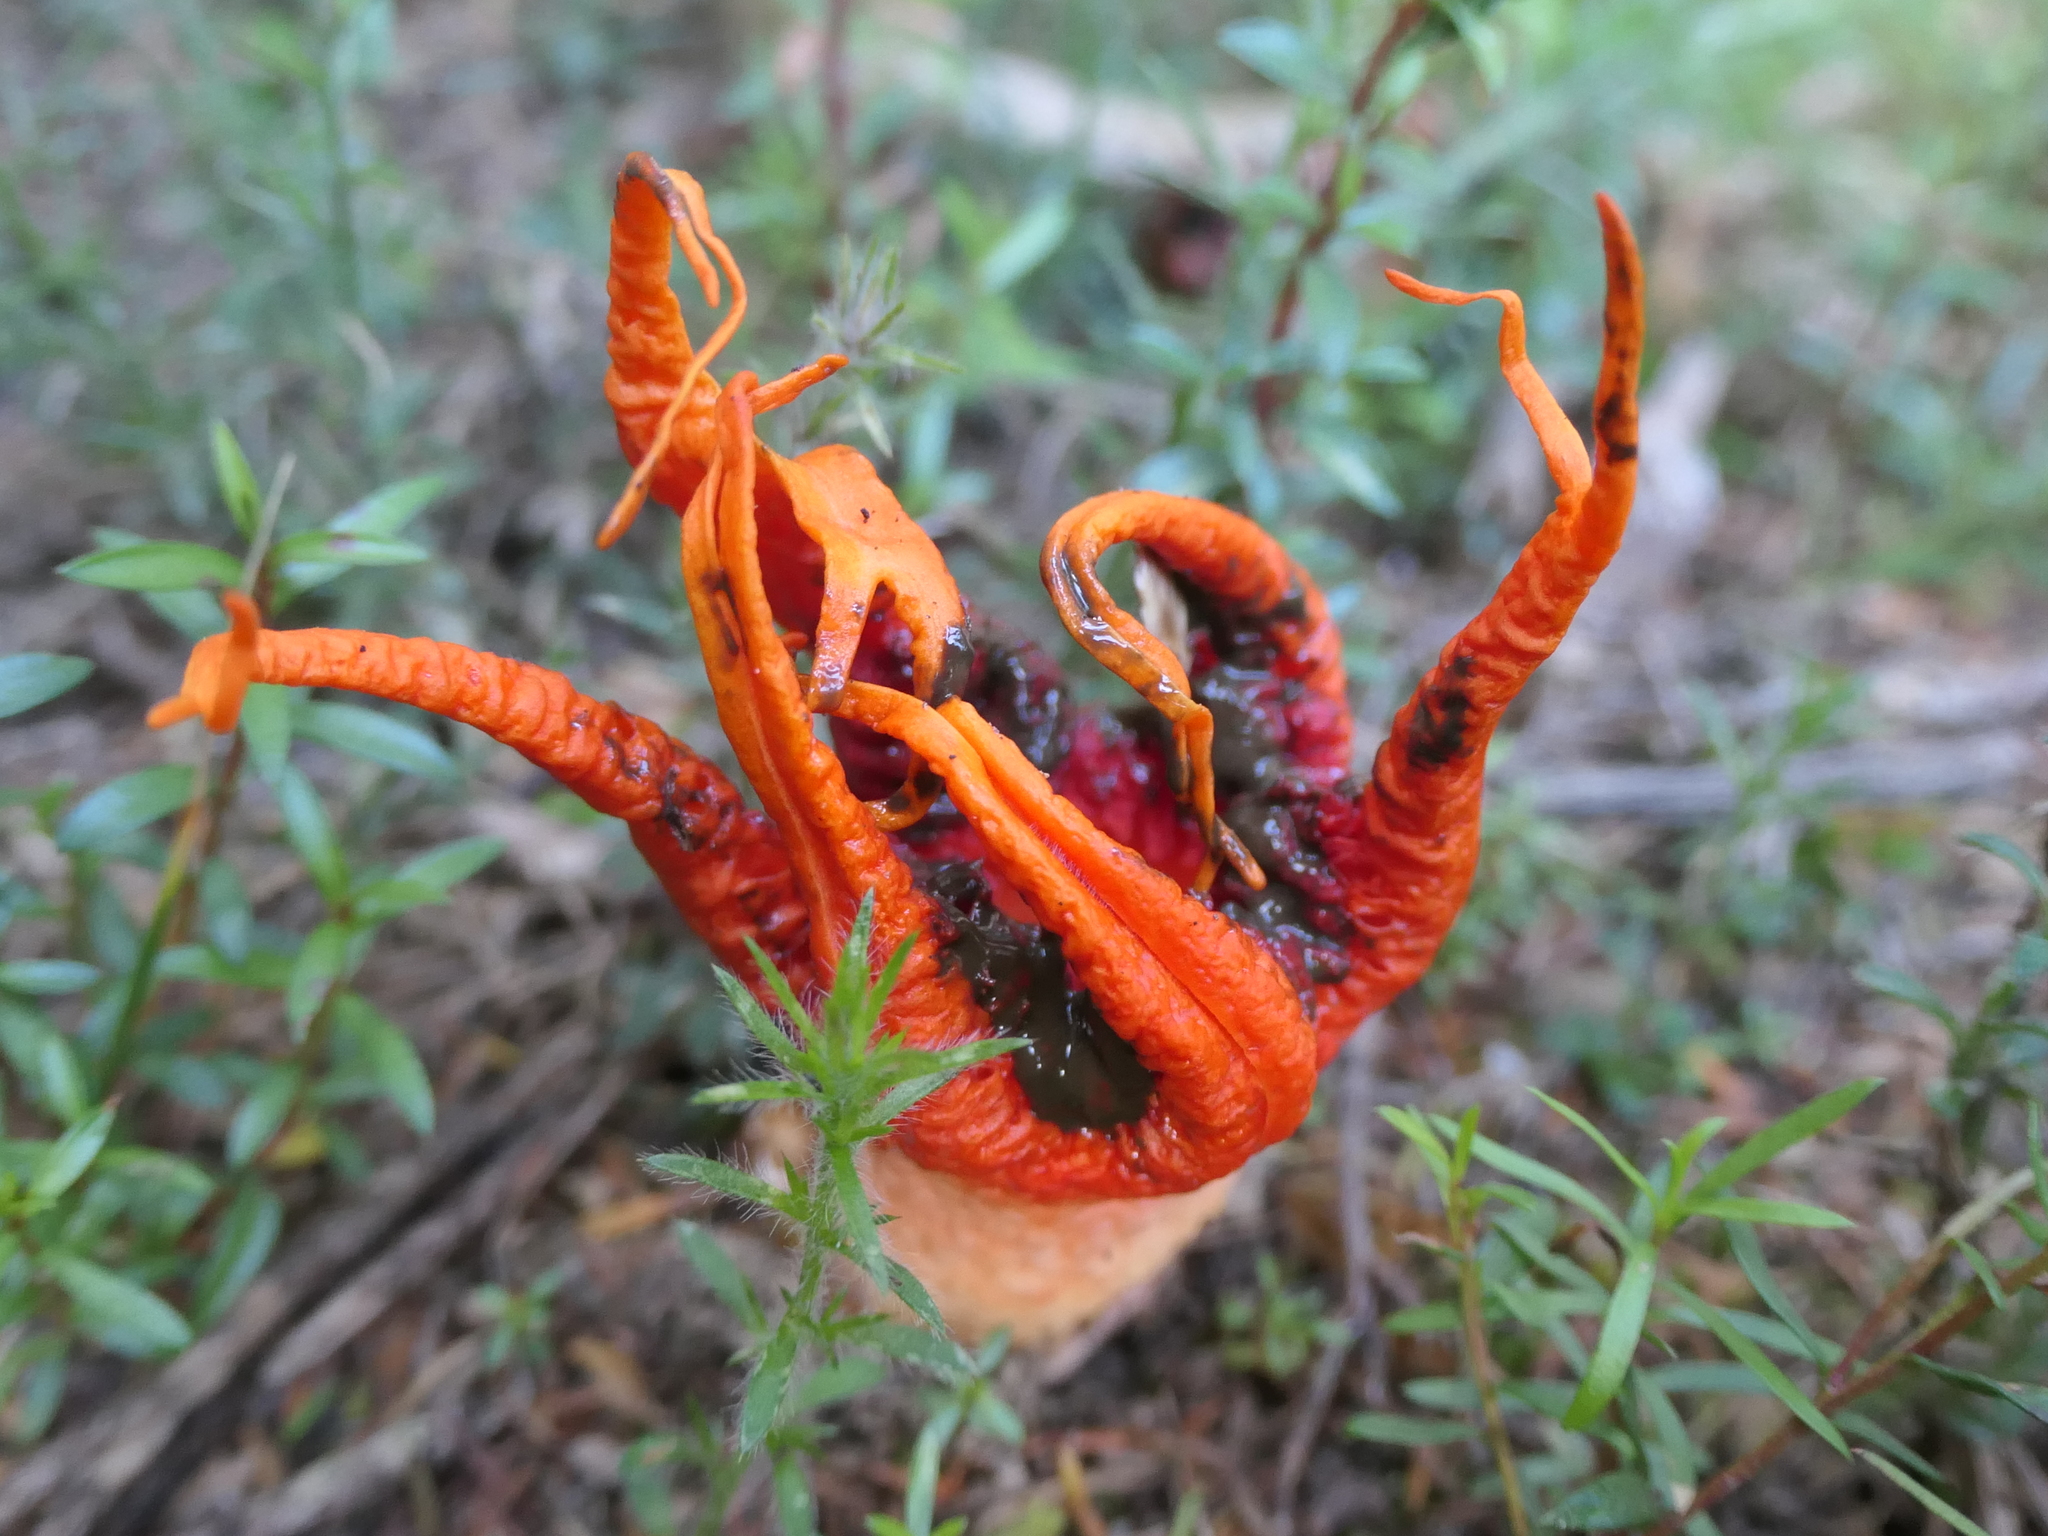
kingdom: Fungi
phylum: Basidiomycota
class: Agaricomycetes
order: Phallales
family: Phallaceae
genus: Aseroe
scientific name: Aseroe rubra
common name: Starfish fungus
